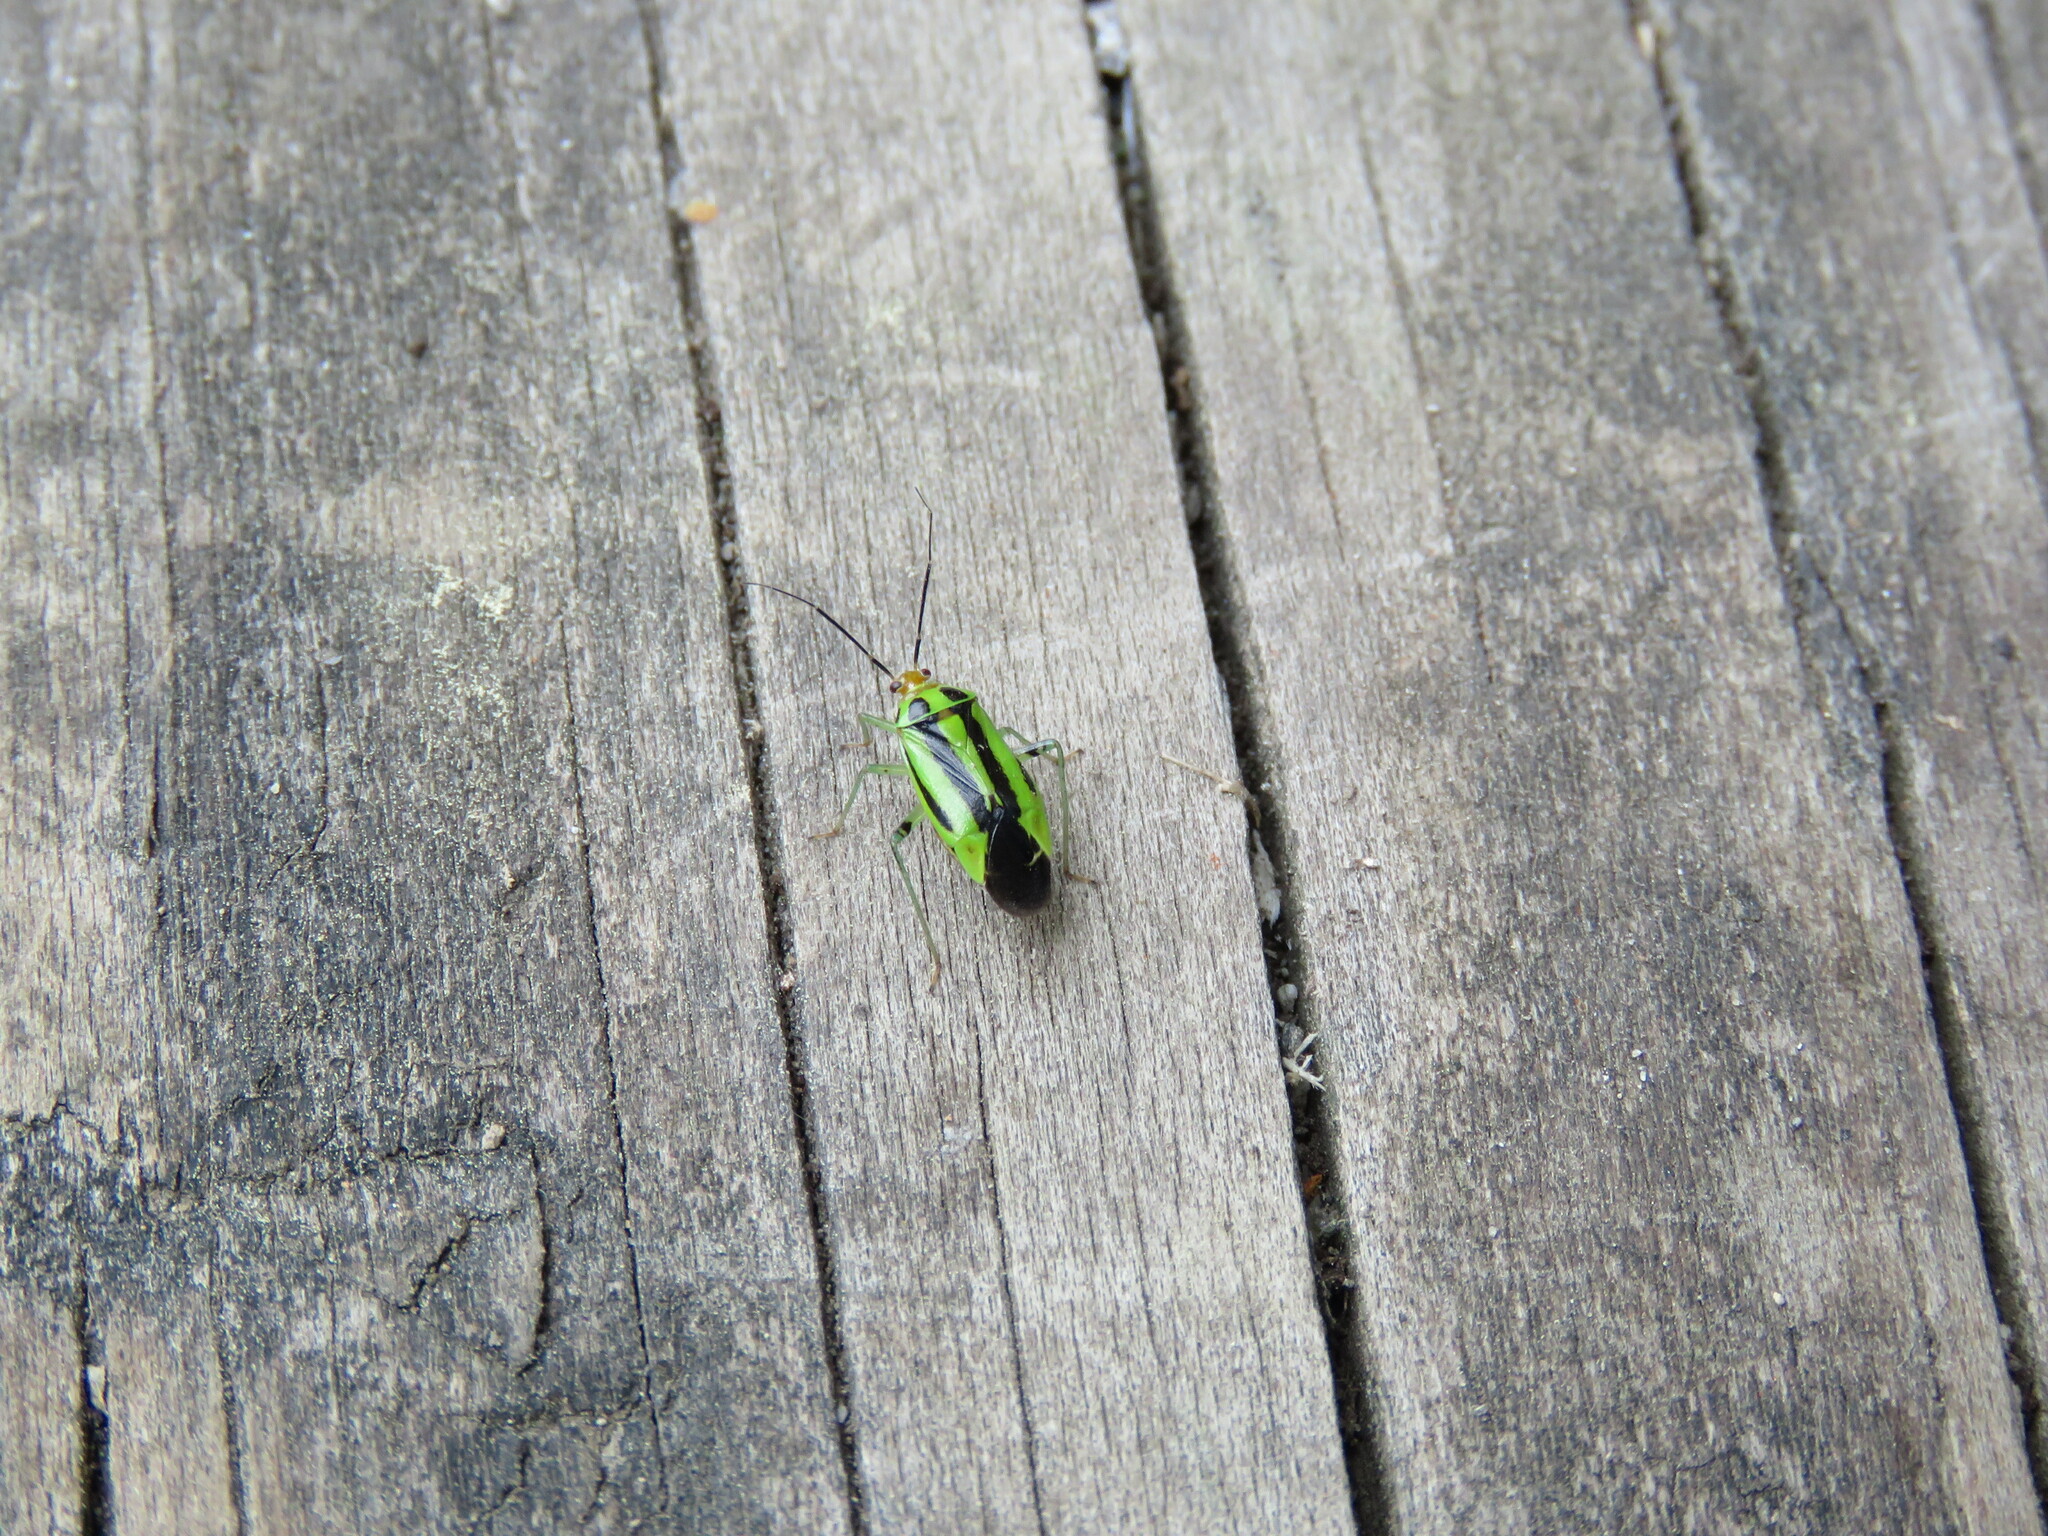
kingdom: Animalia
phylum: Arthropoda
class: Insecta
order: Hemiptera
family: Miridae
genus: Poecilocapsus
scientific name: Poecilocapsus lineatus
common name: Four-lined plant bug
